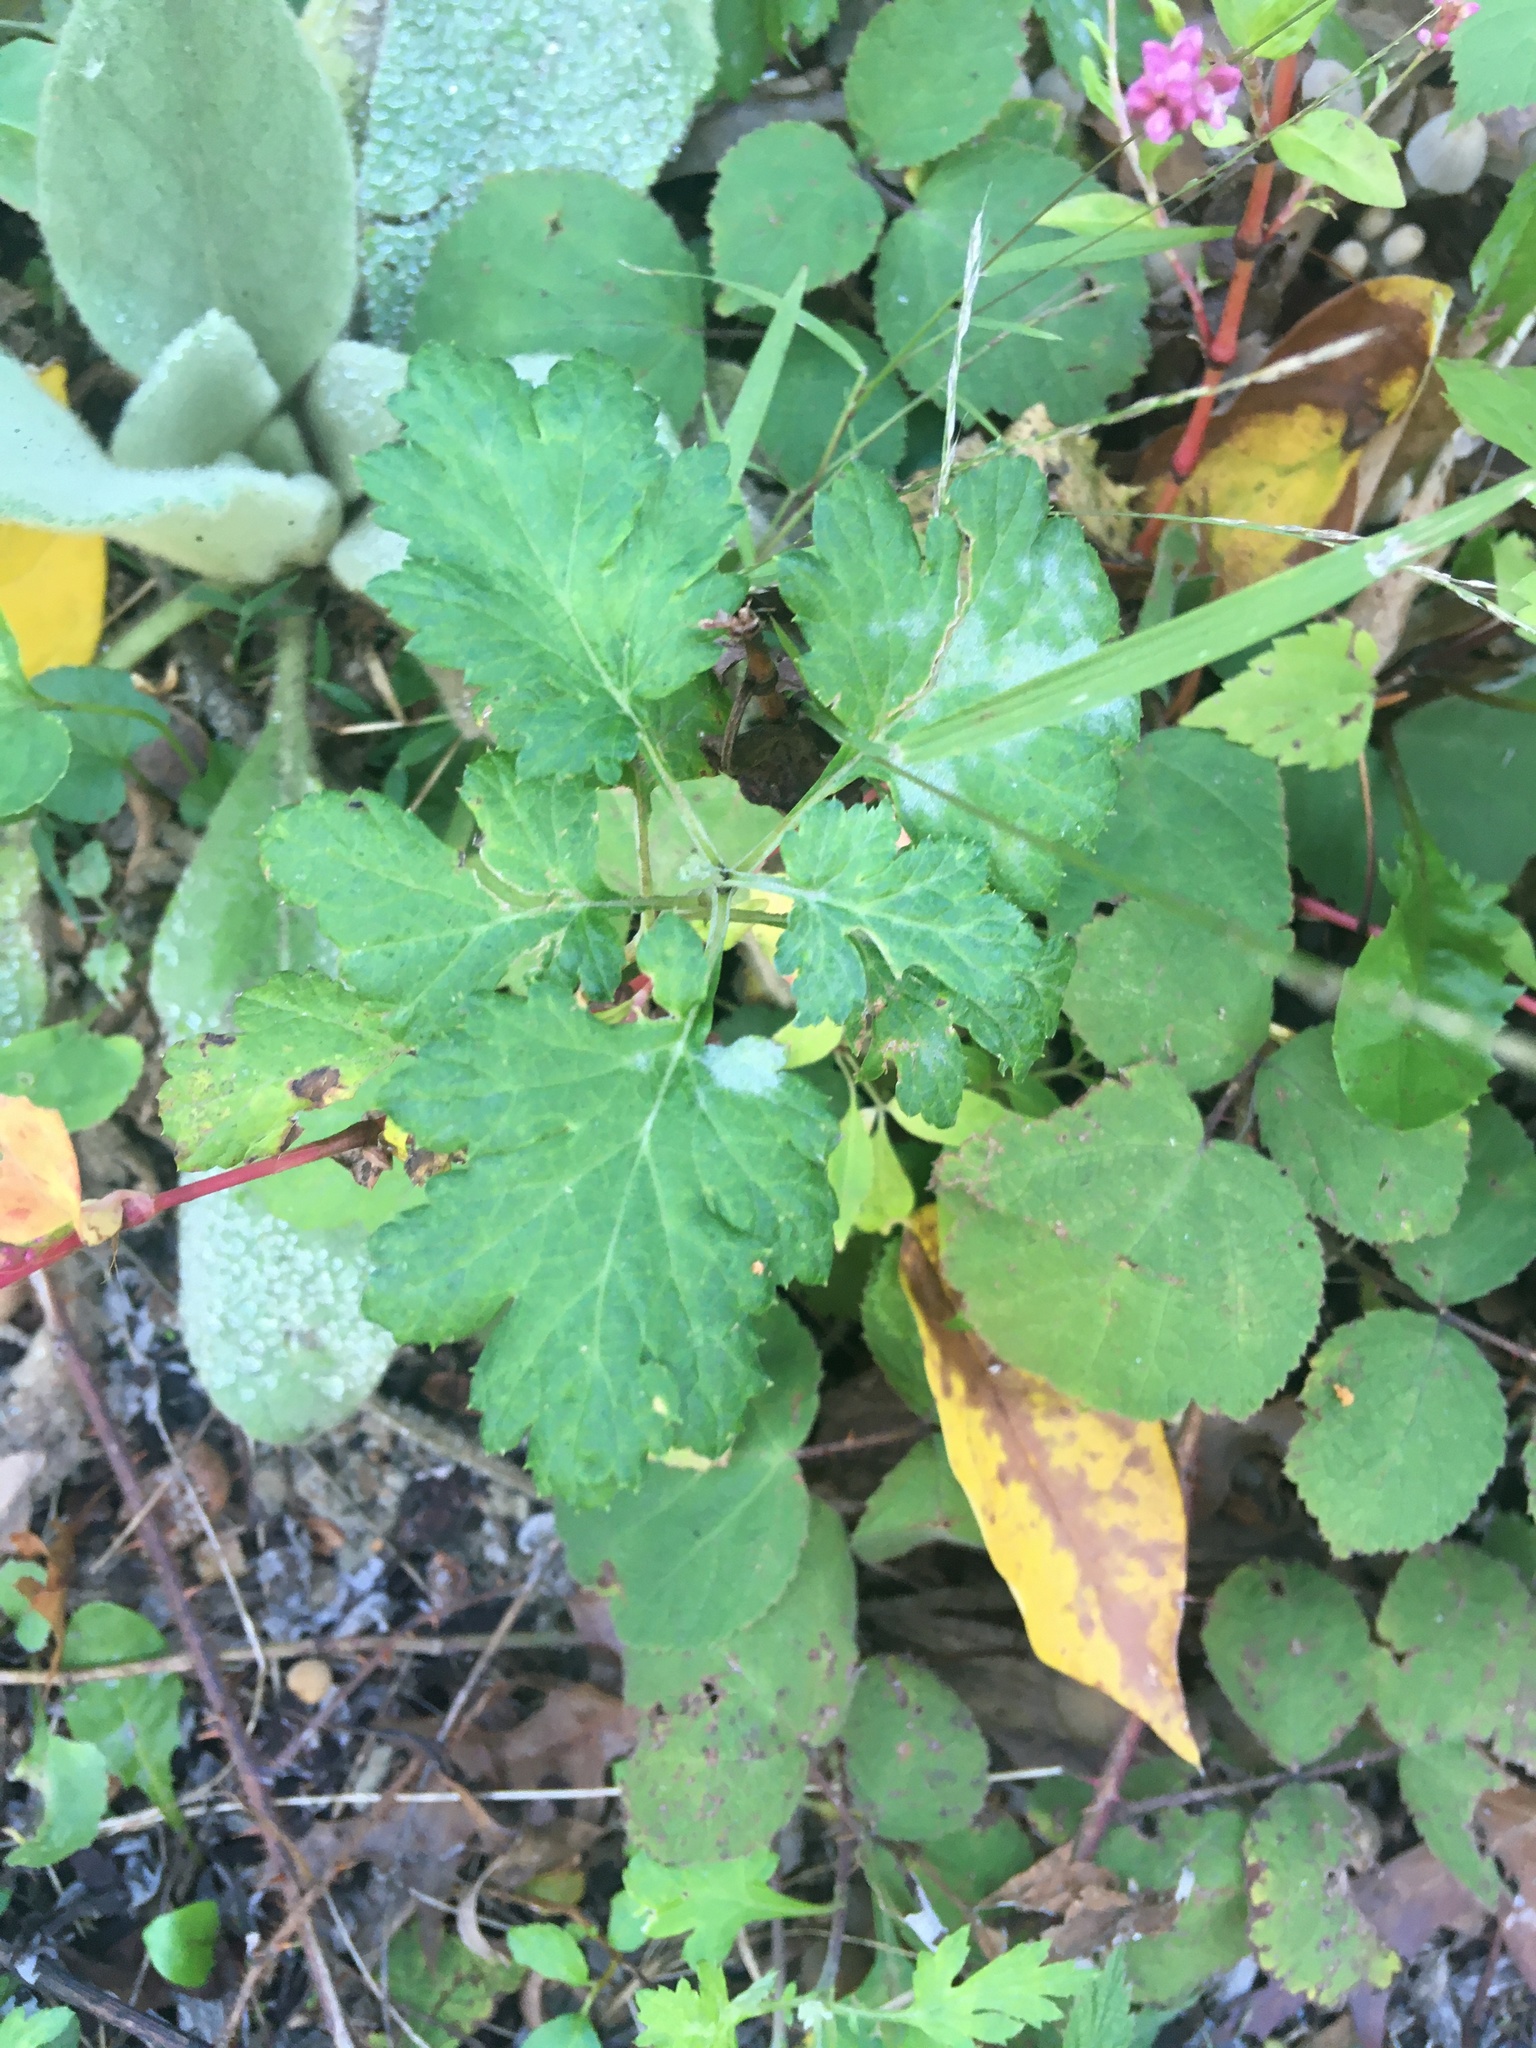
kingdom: Plantae
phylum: Tracheophyta
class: Magnoliopsida
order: Asterales
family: Asteraceae
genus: Artemisia
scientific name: Artemisia vulgaris
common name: Mugwort
